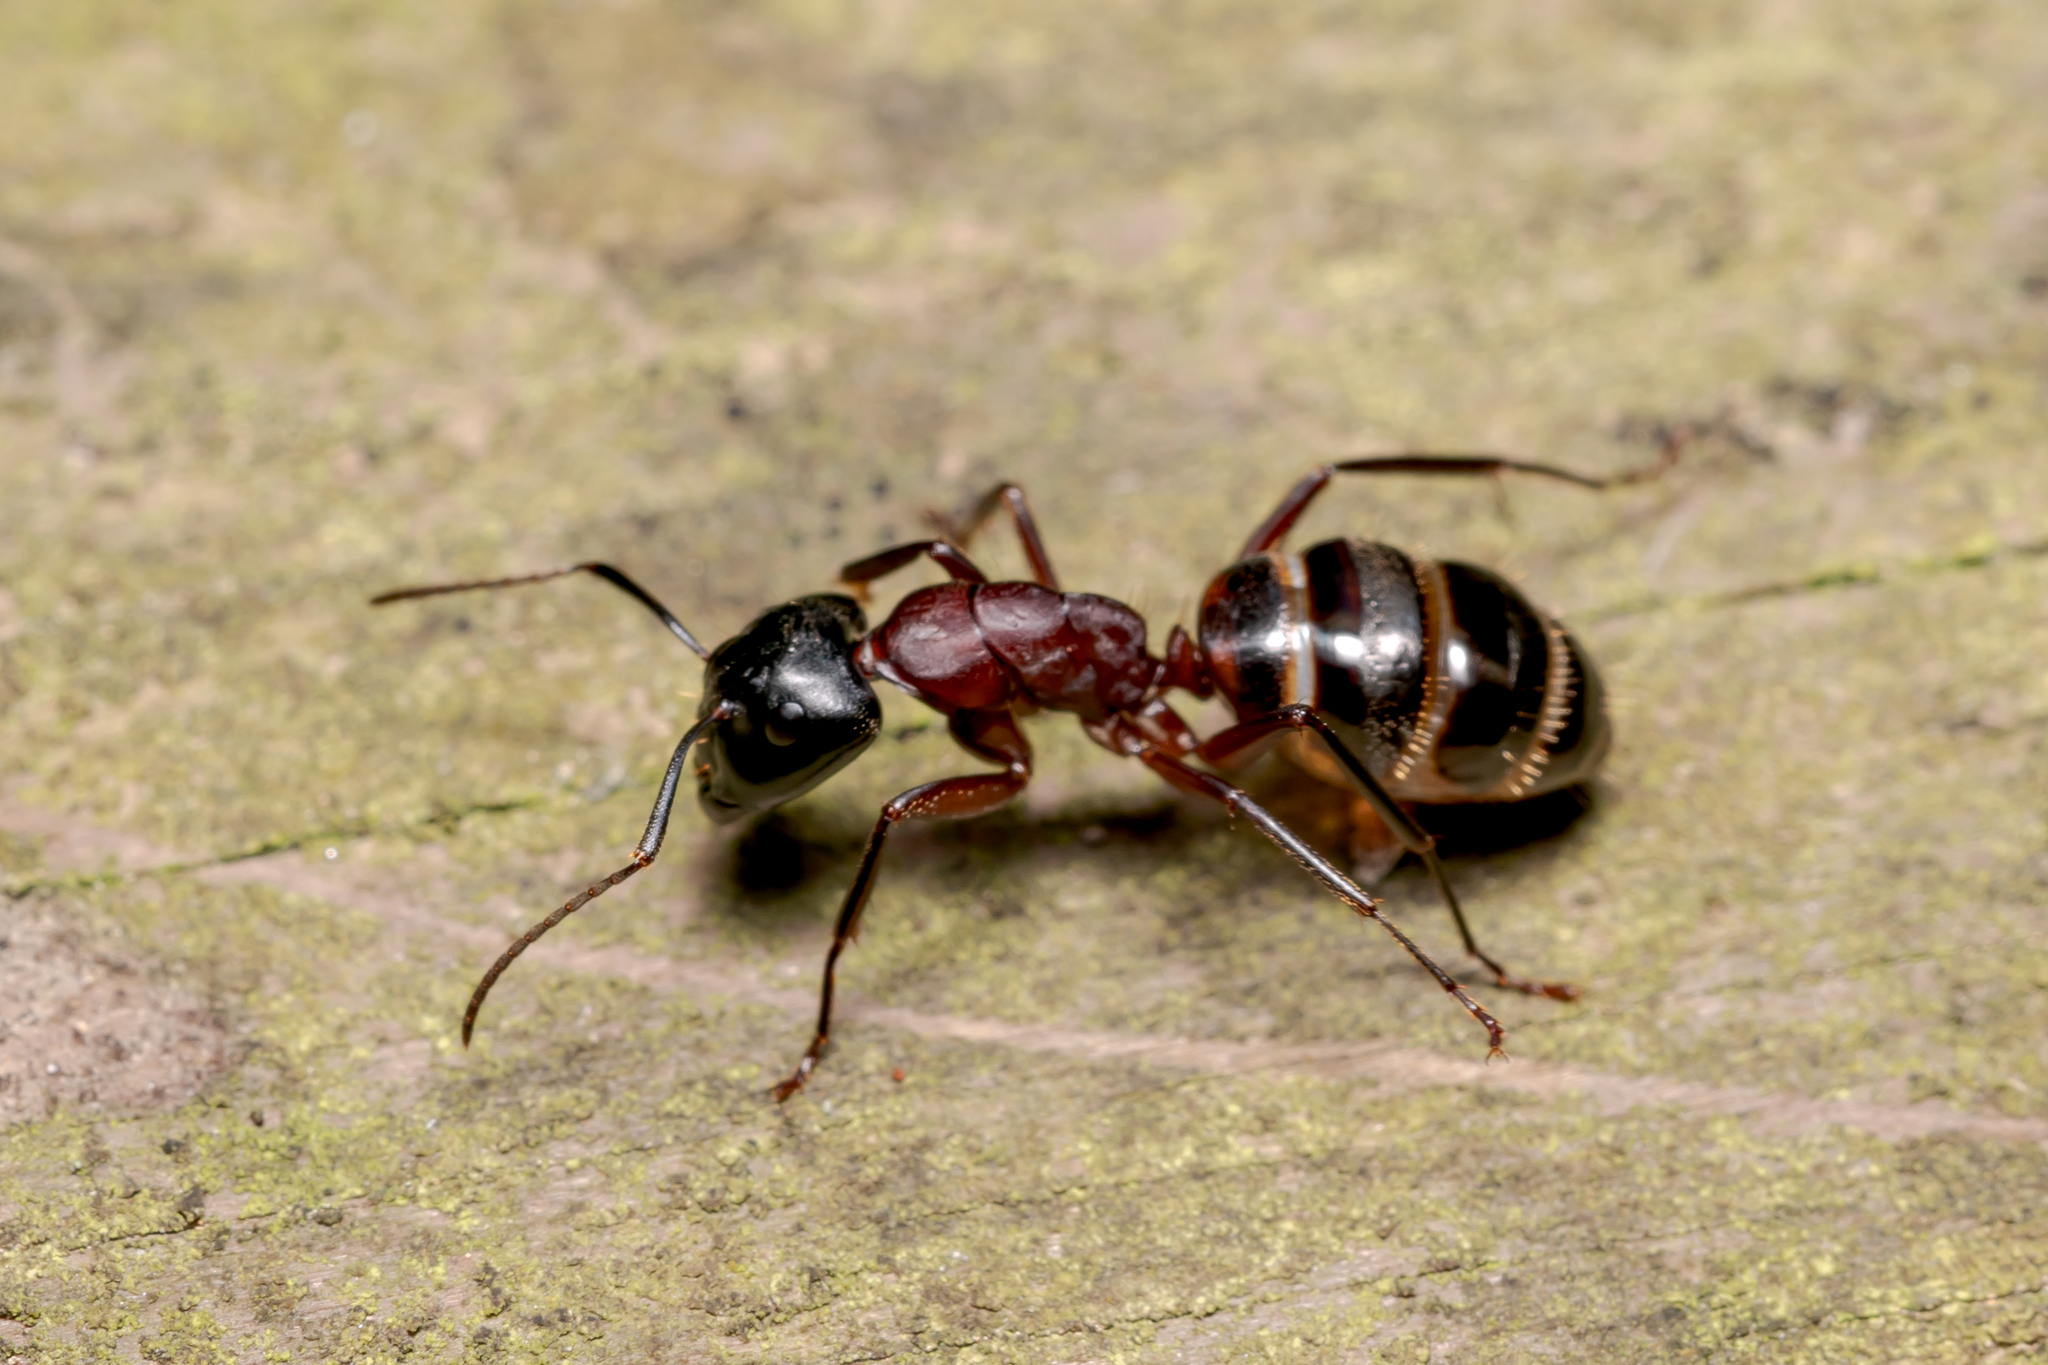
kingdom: Animalia
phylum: Arthropoda
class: Insecta
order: Hymenoptera
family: Formicidae
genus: Camponotus
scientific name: Camponotus ligniperdus
